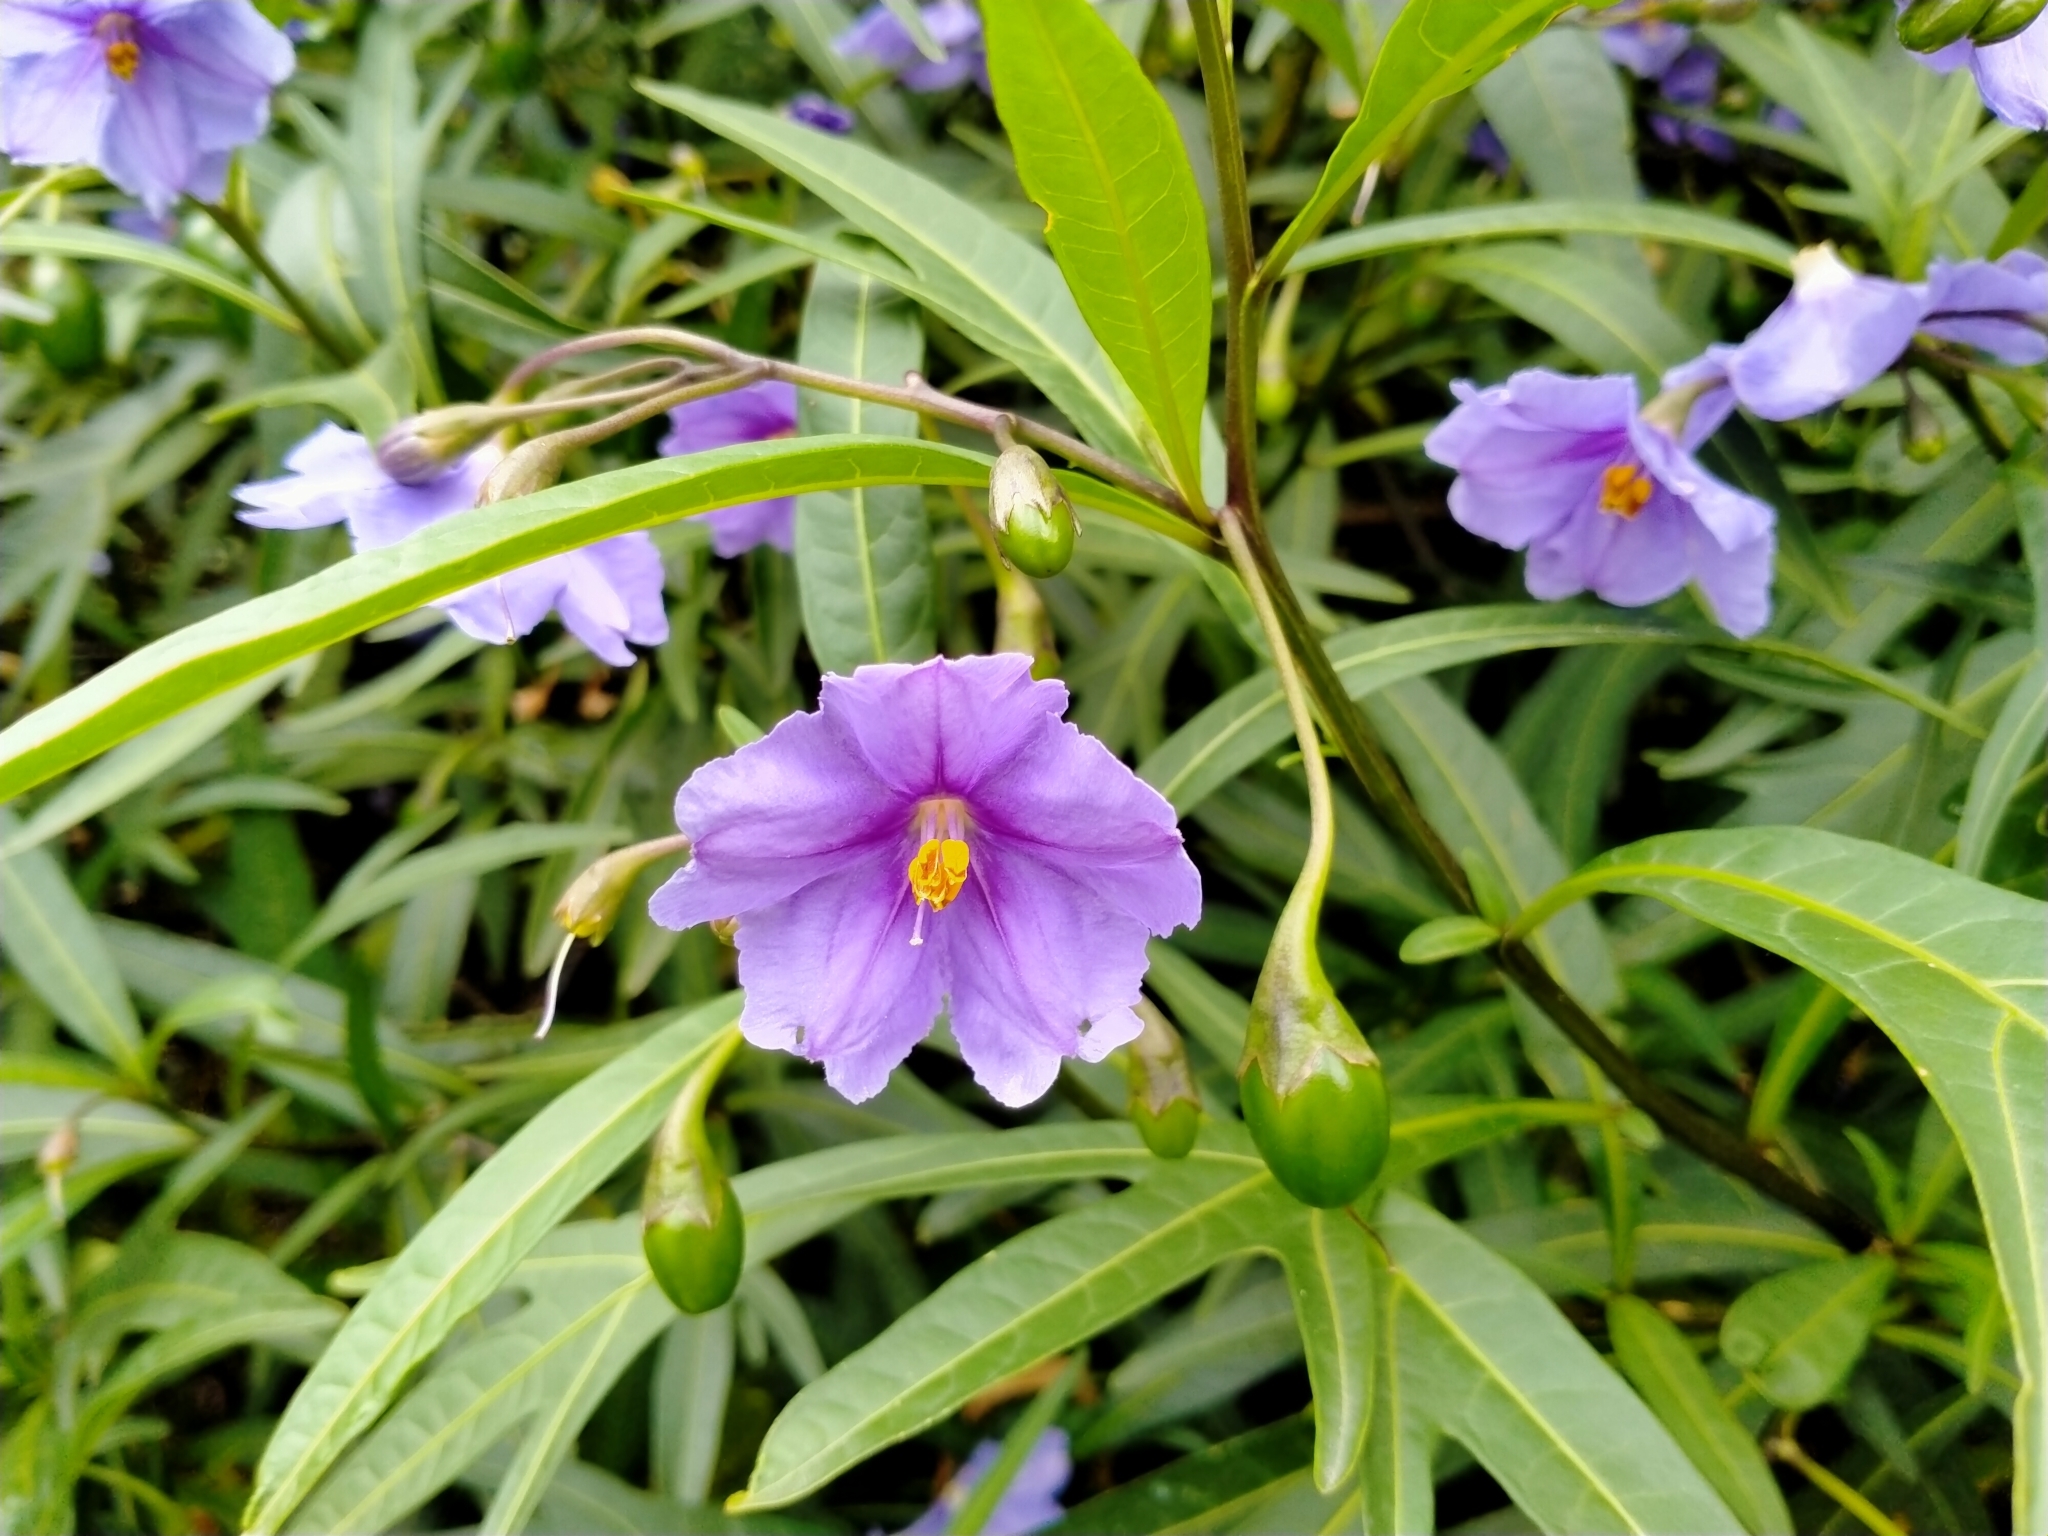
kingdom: Plantae
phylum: Tracheophyta
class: Magnoliopsida
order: Solanales
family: Solanaceae
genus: Solanum
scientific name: Solanum laciniatum
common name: Kangaroo-apple
